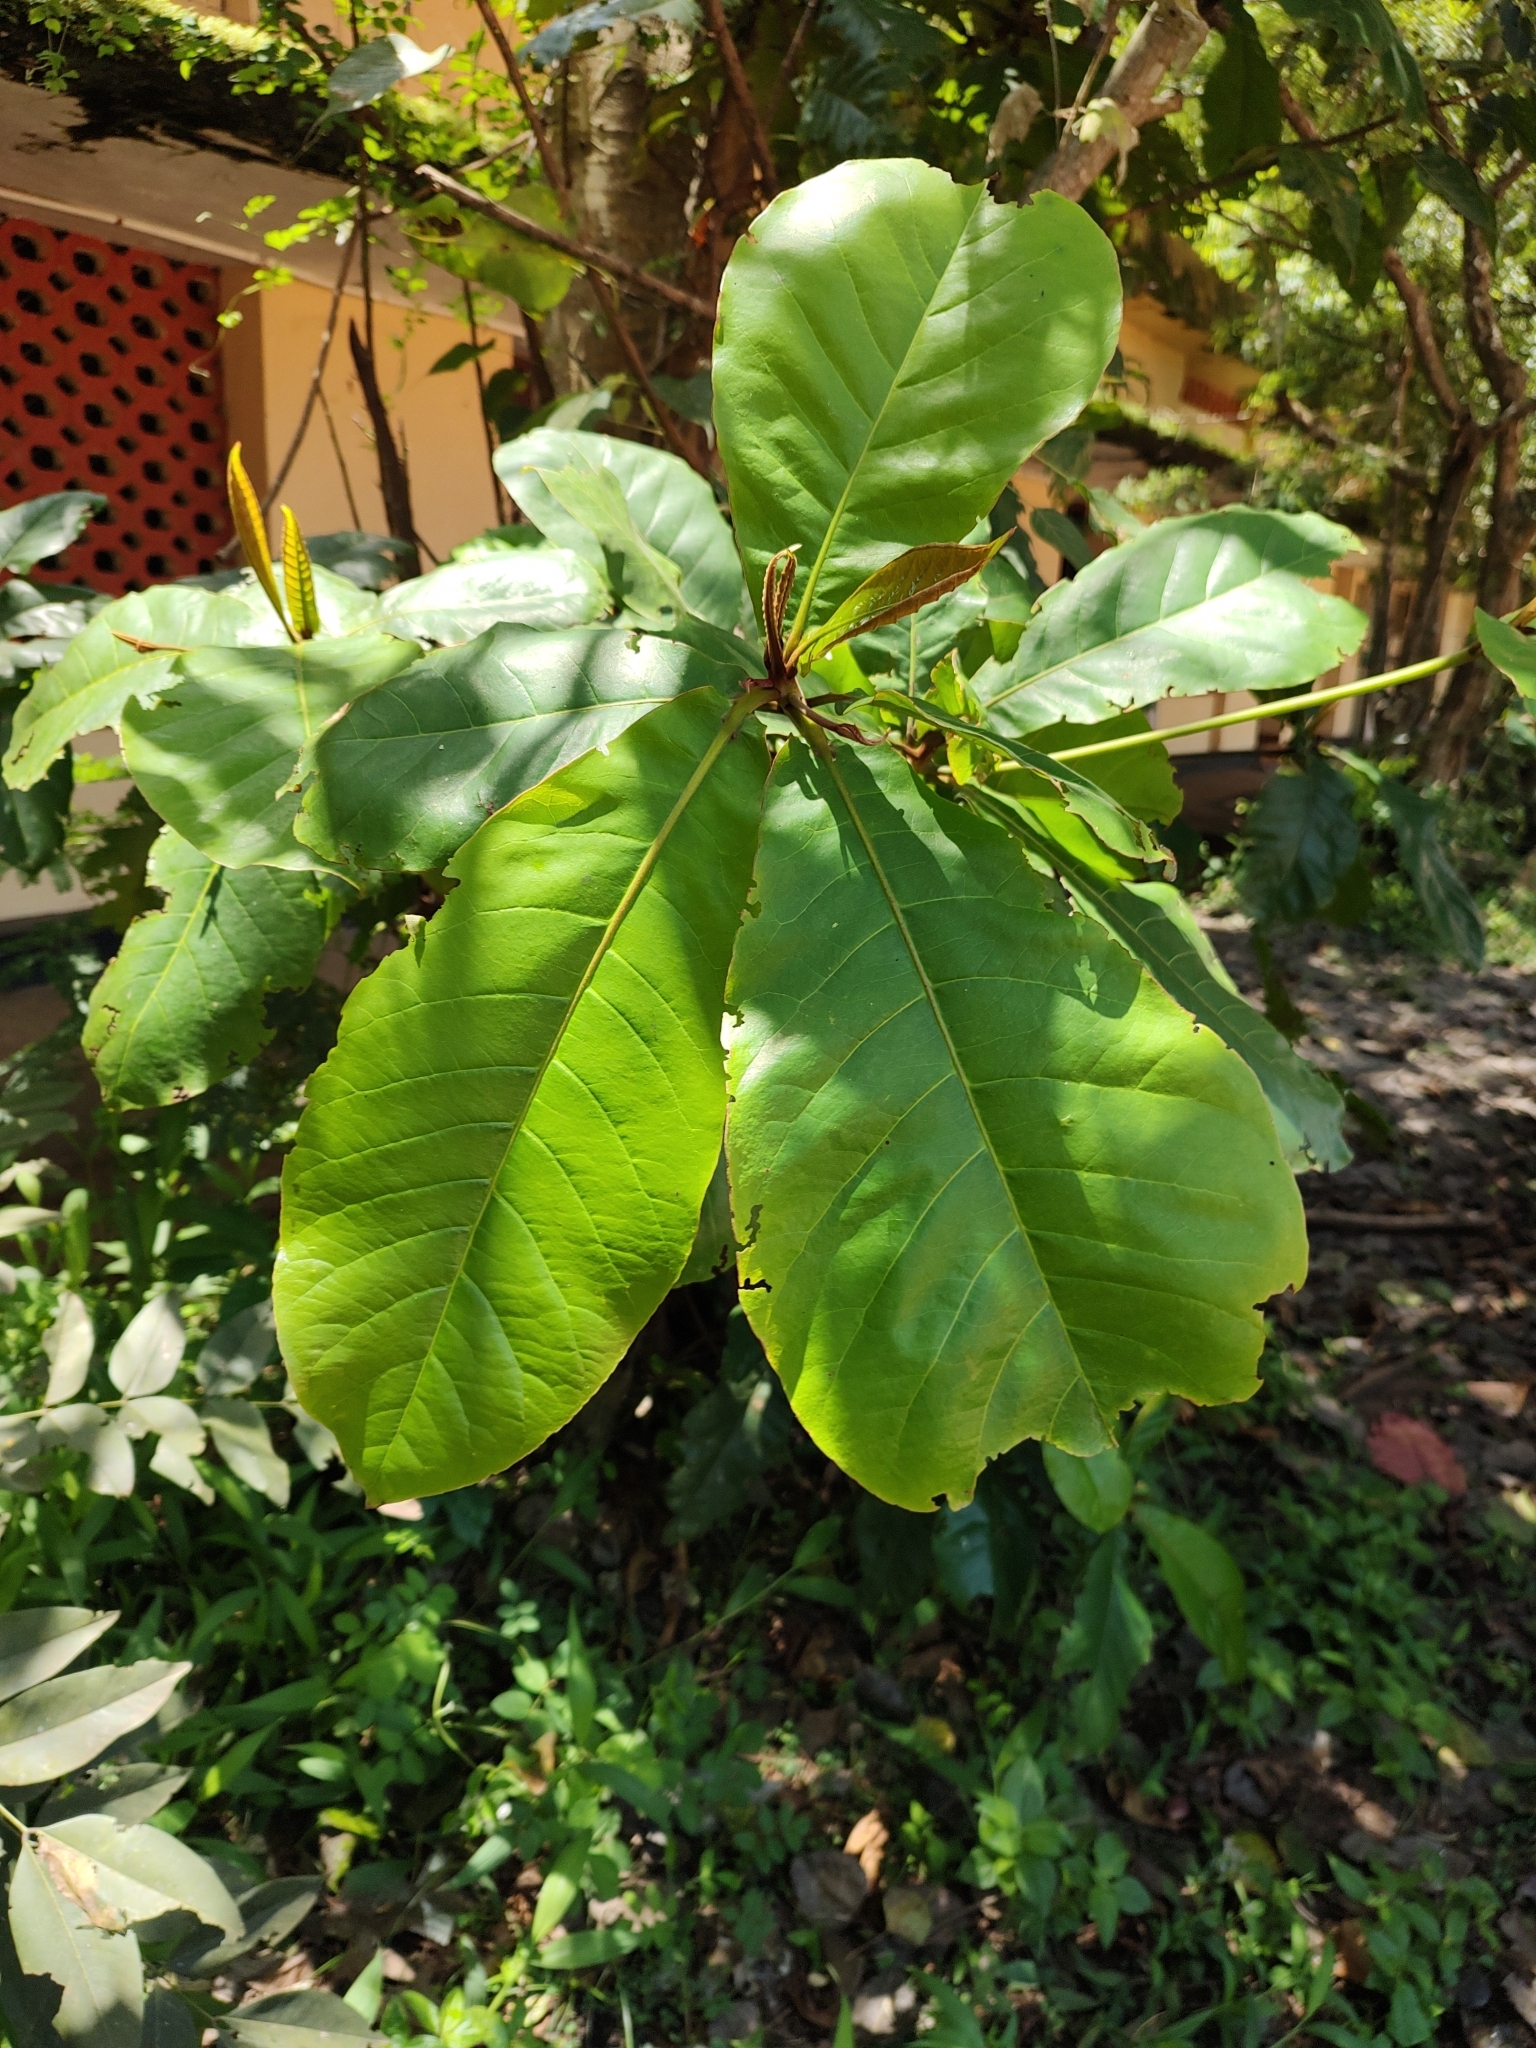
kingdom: Plantae
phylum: Tracheophyta
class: Magnoliopsida
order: Myrtales
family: Combretaceae
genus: Terminalia
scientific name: Terminalia catappa
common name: Tropical almond
